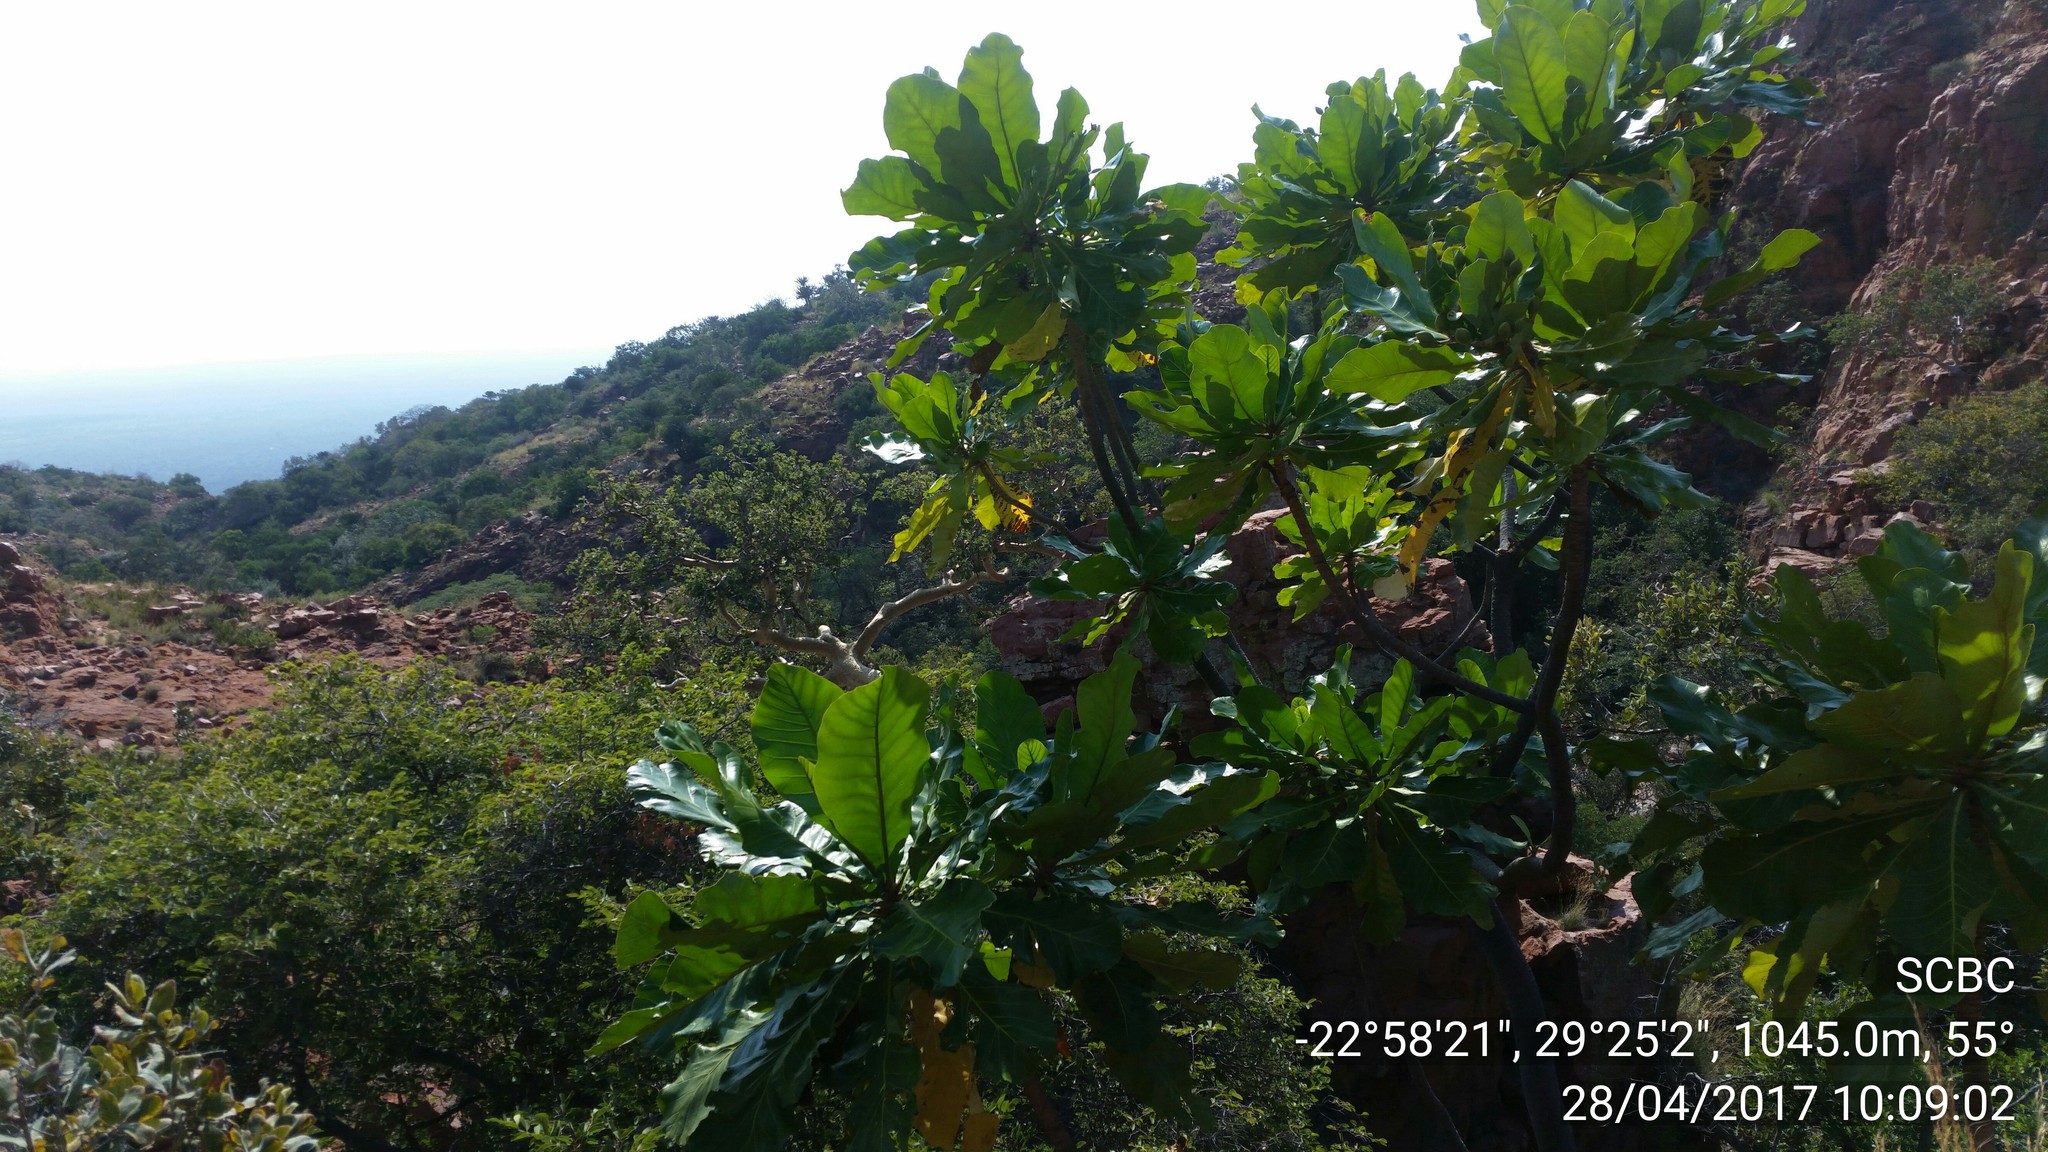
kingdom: Plantae
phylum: Tracheophyta
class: Magnoliopsida
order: Gentianales
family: Gentianaceae
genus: Anthocleista
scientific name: Anthocleista grandiflora
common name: Forest big-leaf
